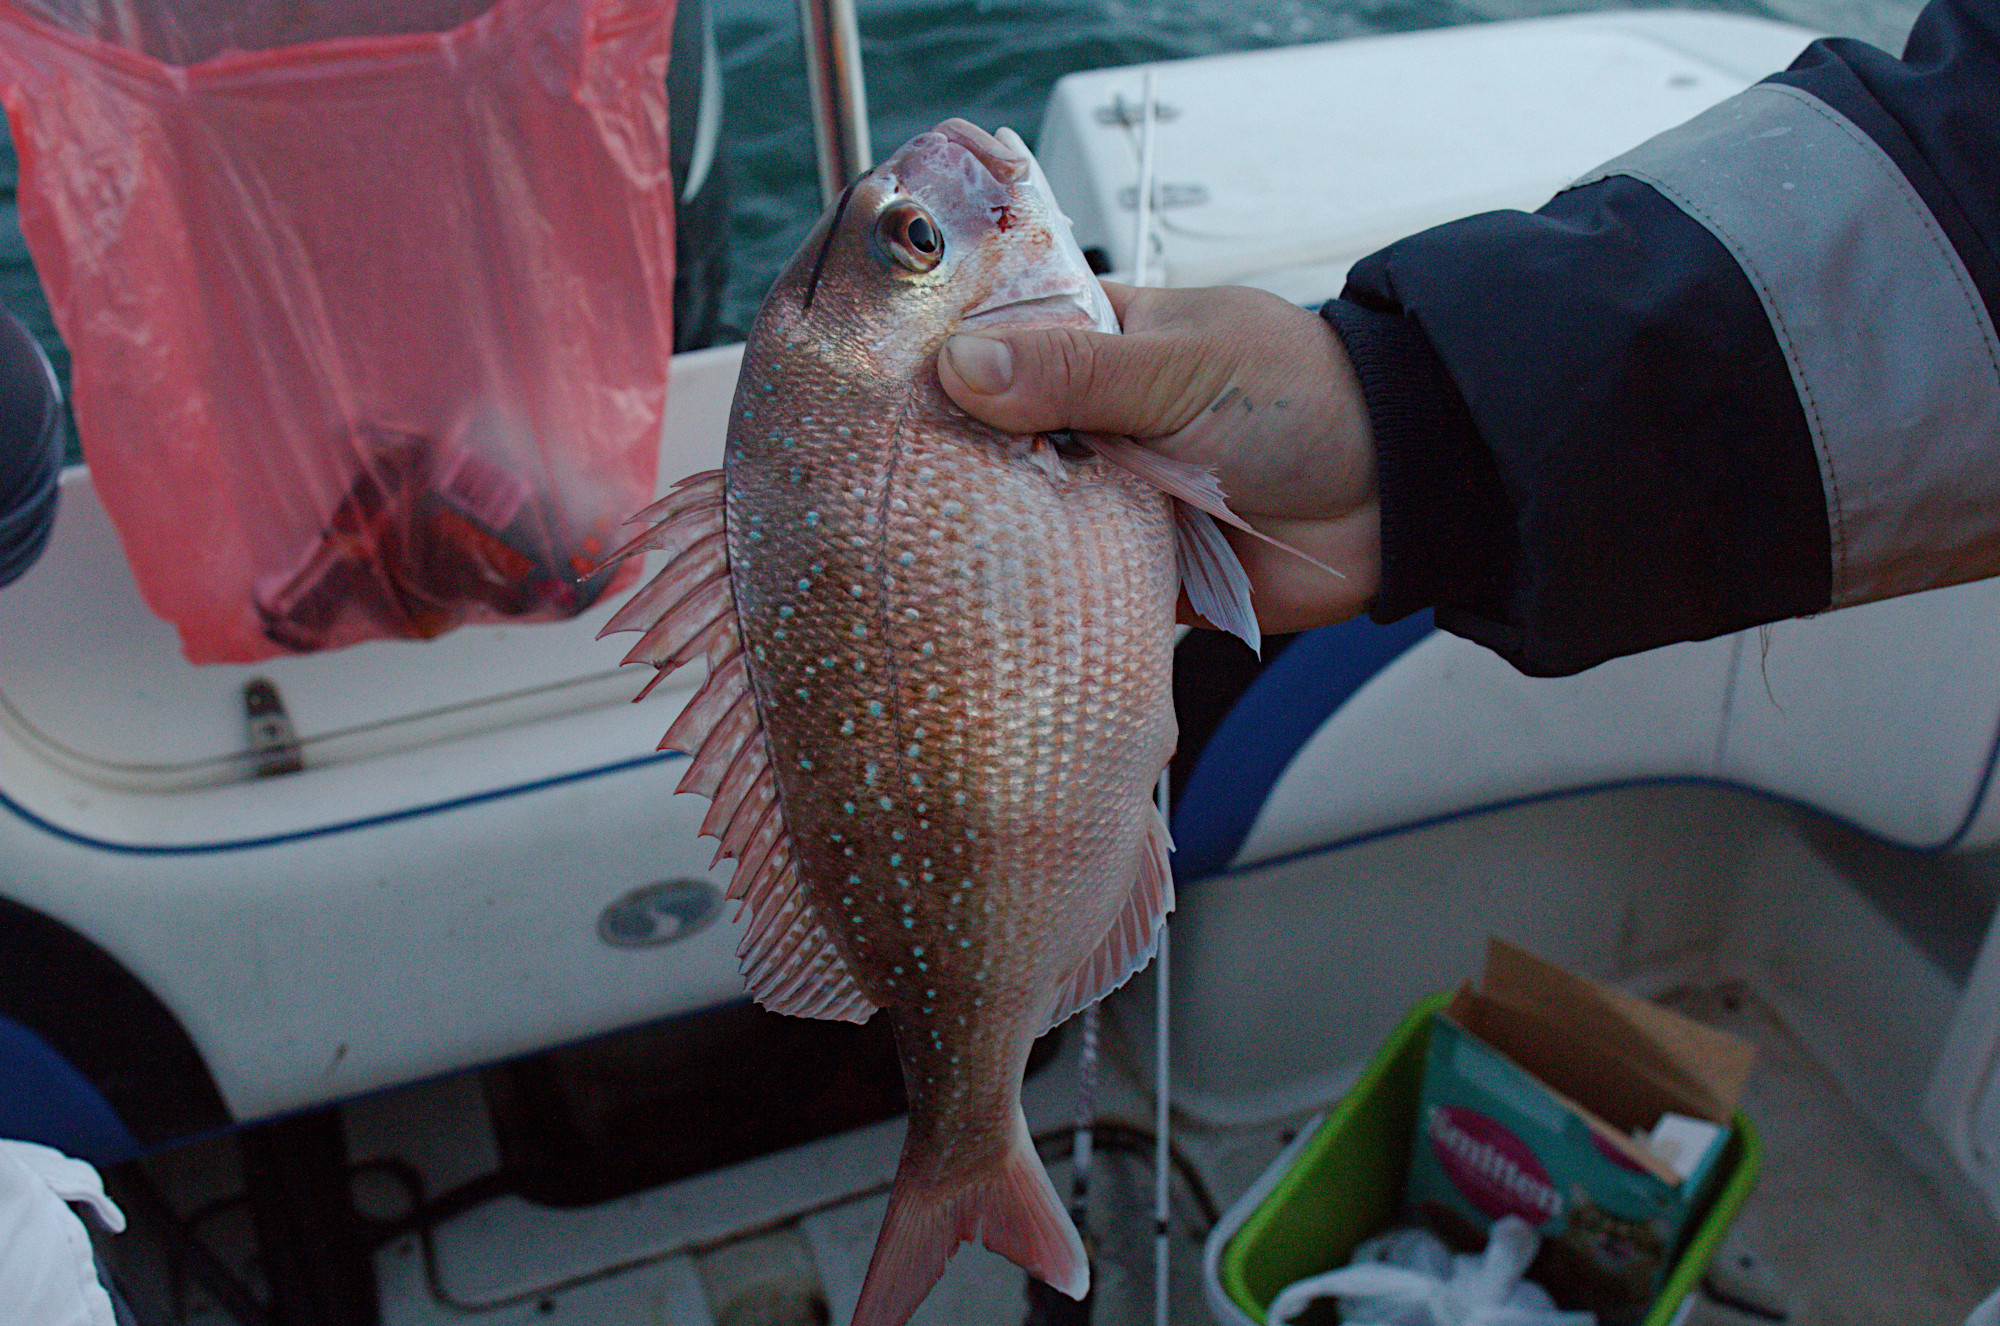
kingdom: Animalia
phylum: Chordata
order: Perciformes
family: Sparidae
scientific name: Sparidae
